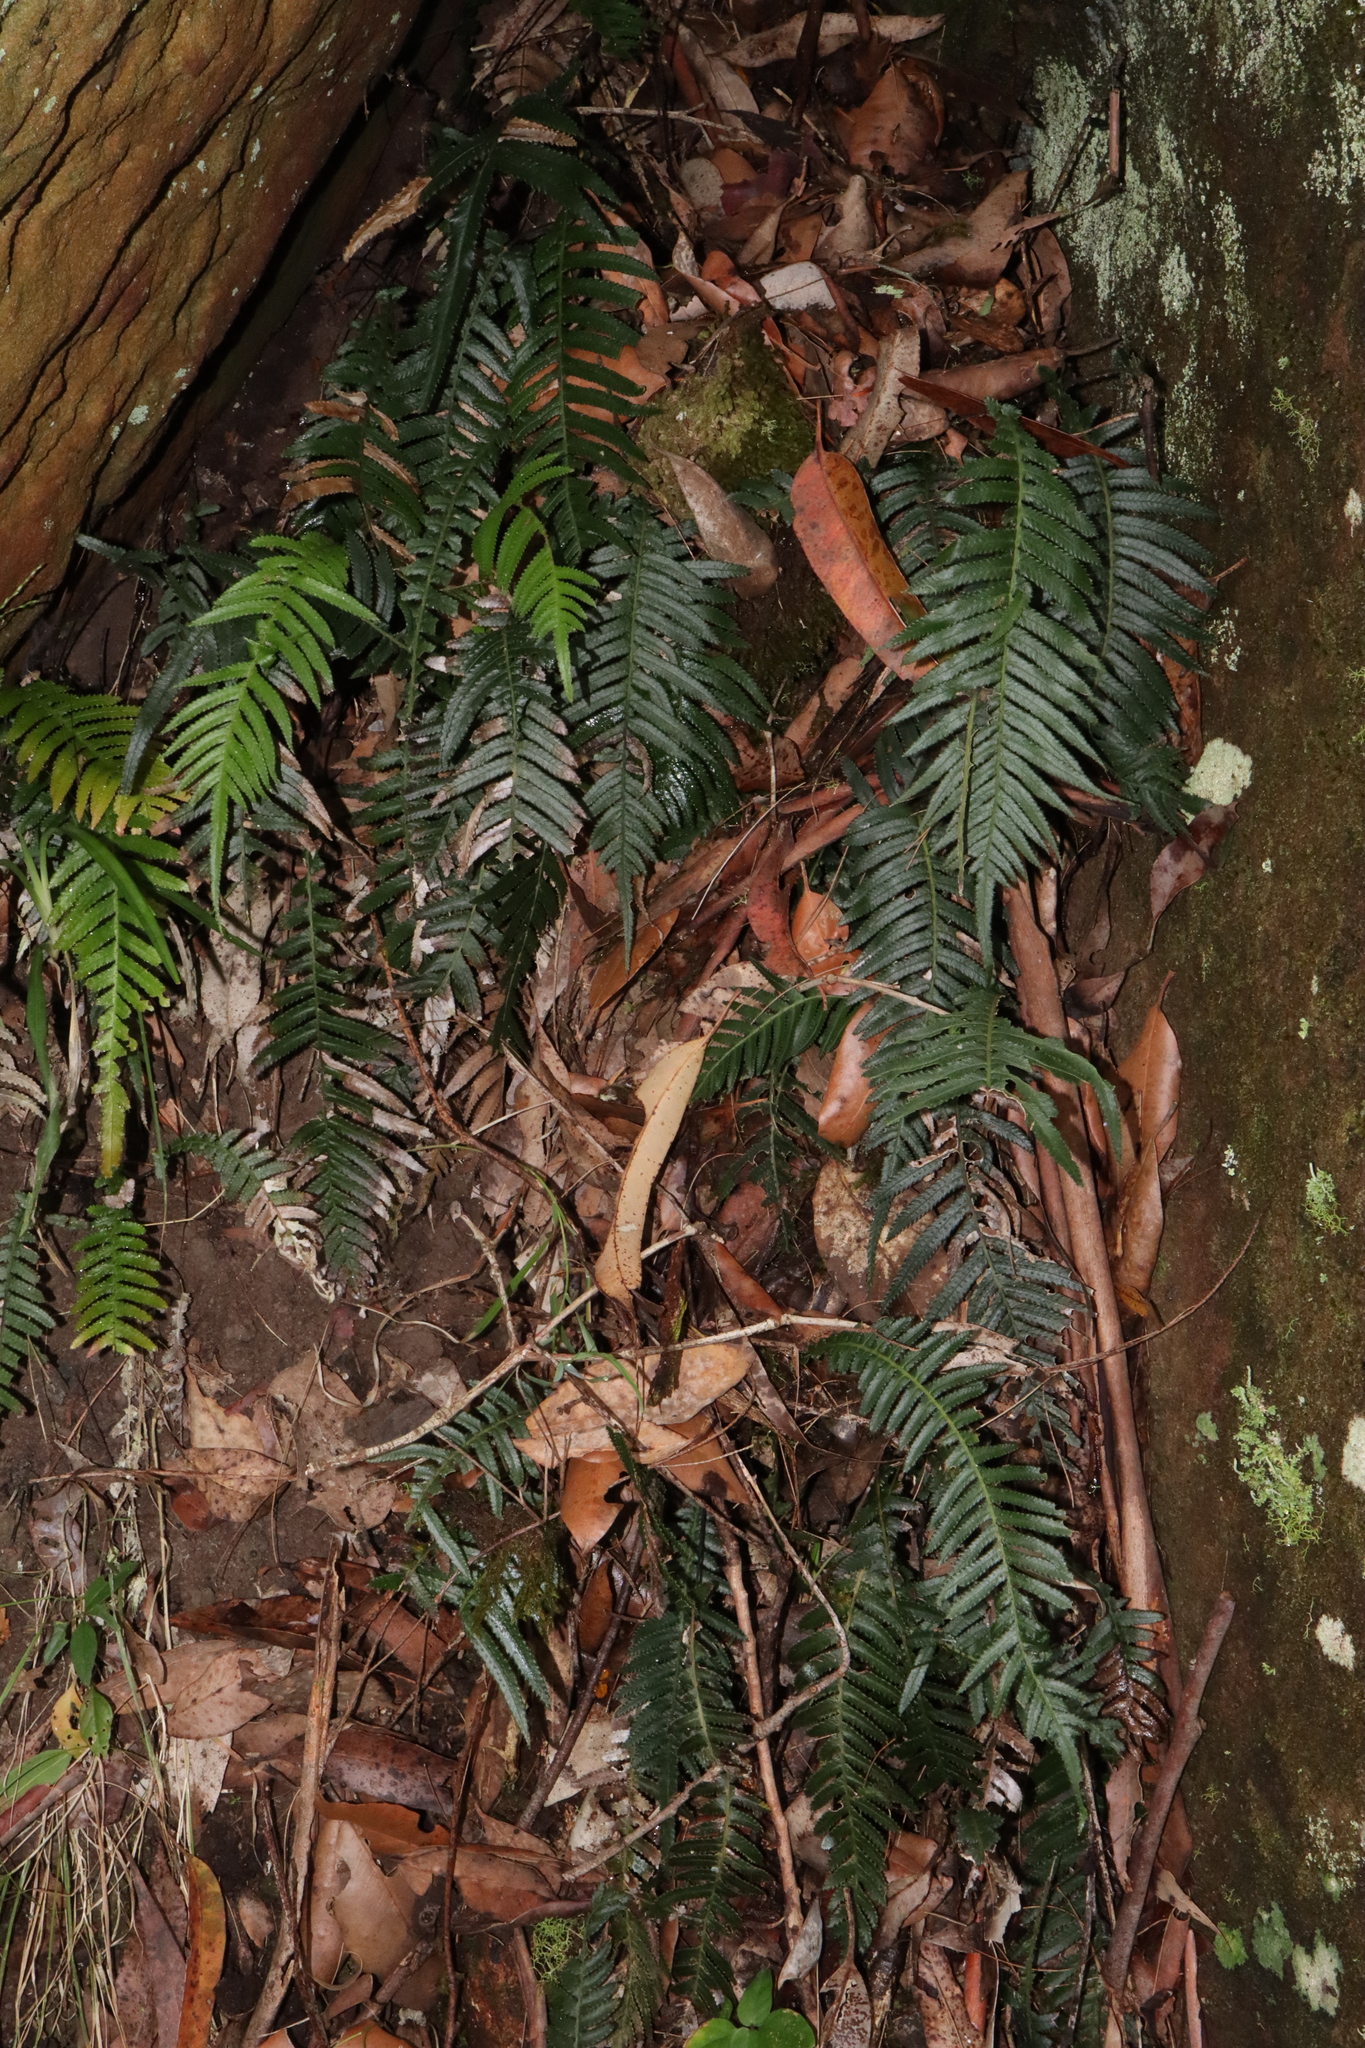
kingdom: Plantae
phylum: Tracheophyta
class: Polypodiopsida
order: Polypodiales
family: Blechnaceae
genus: Doodia
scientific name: Doodia aspera
